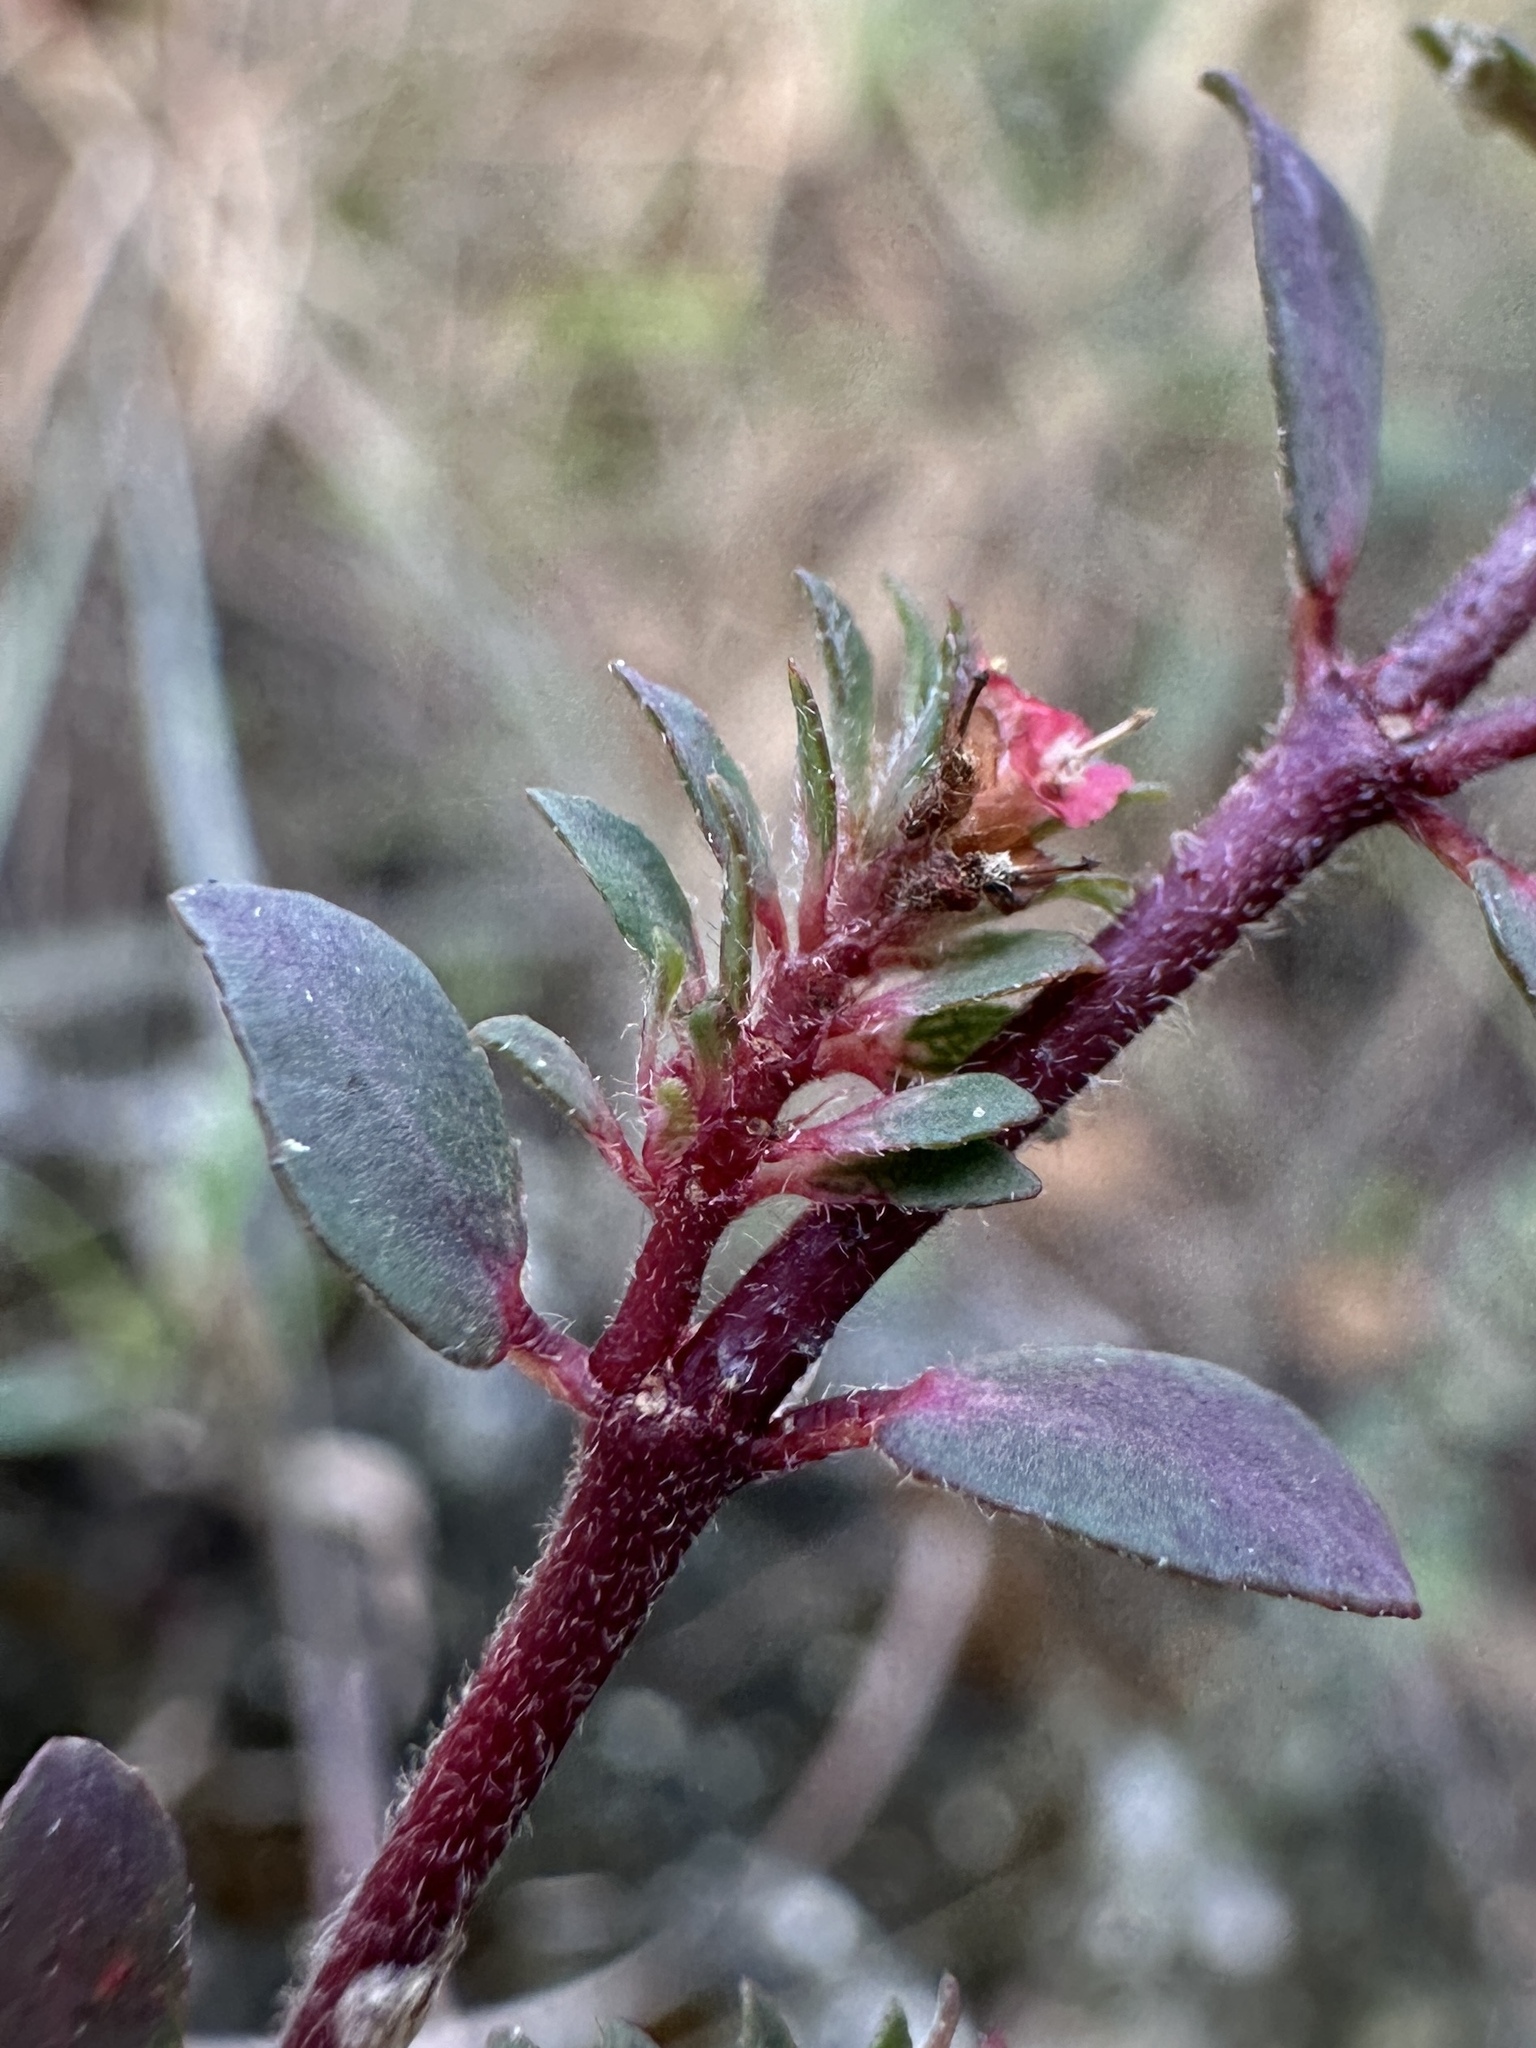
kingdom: Plantae
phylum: Tracheophyta
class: Magnoliopsida
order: Malpighiales
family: Euphorbiaceae
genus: Euphorbia
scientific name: Euphorbia conferta
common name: Everglade key sandmat
